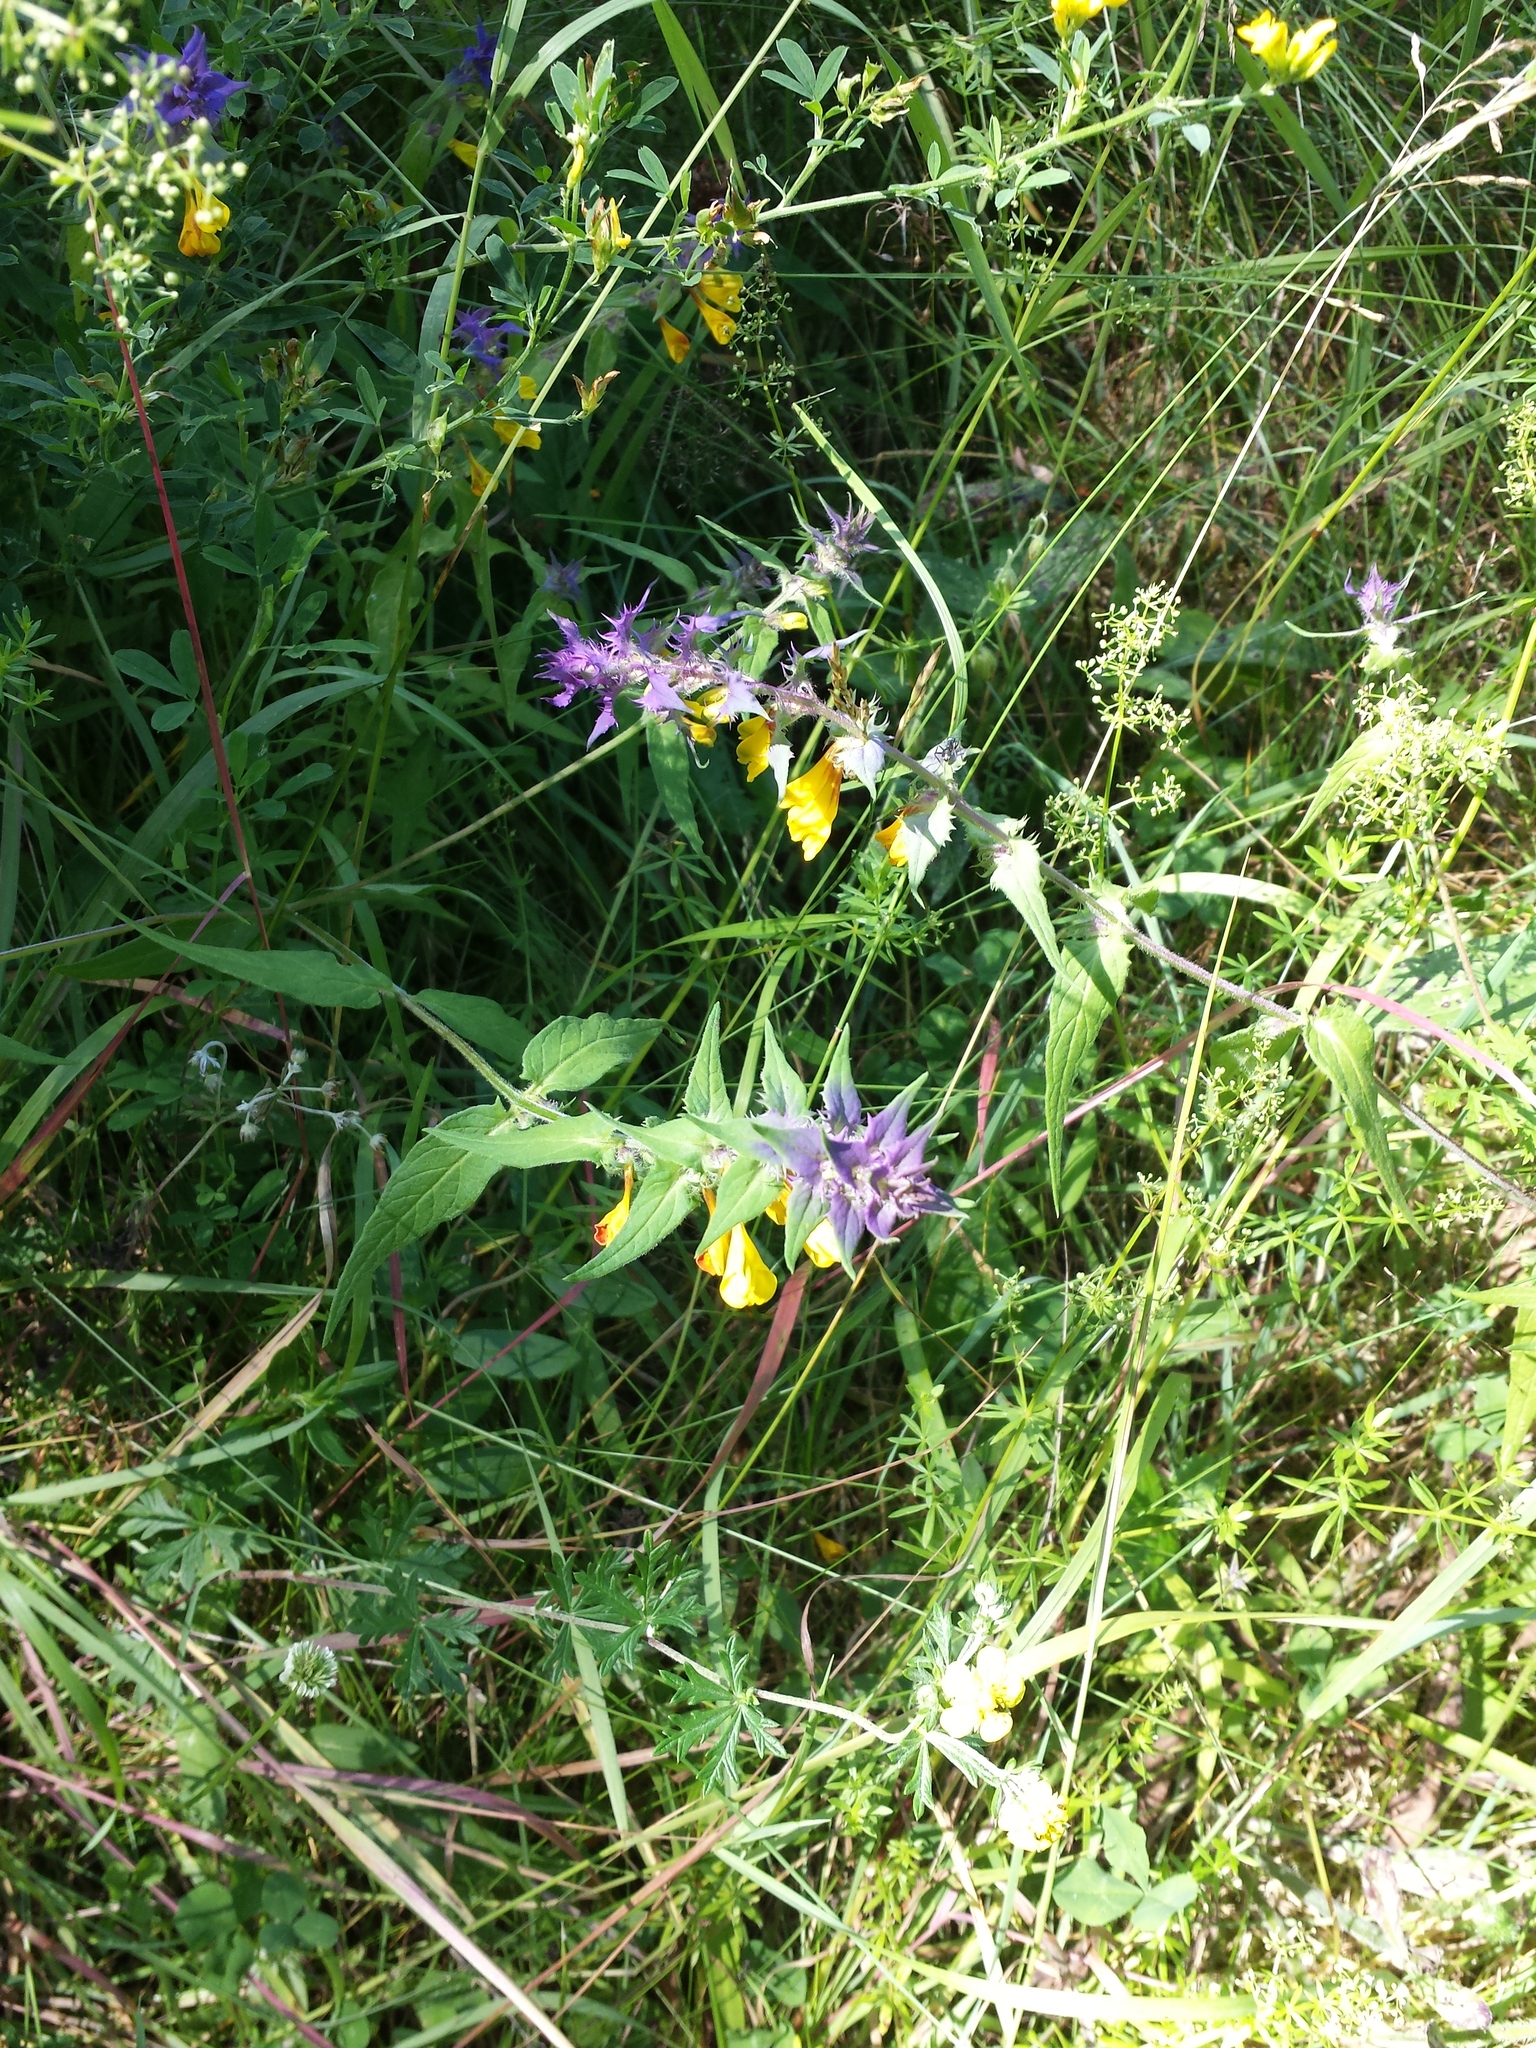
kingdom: Plantae
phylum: Tracheophyta
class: Magnoliopsida
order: Lamiales
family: Orobanchaceae
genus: Melampyrum
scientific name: Melampyrum nemorosum
